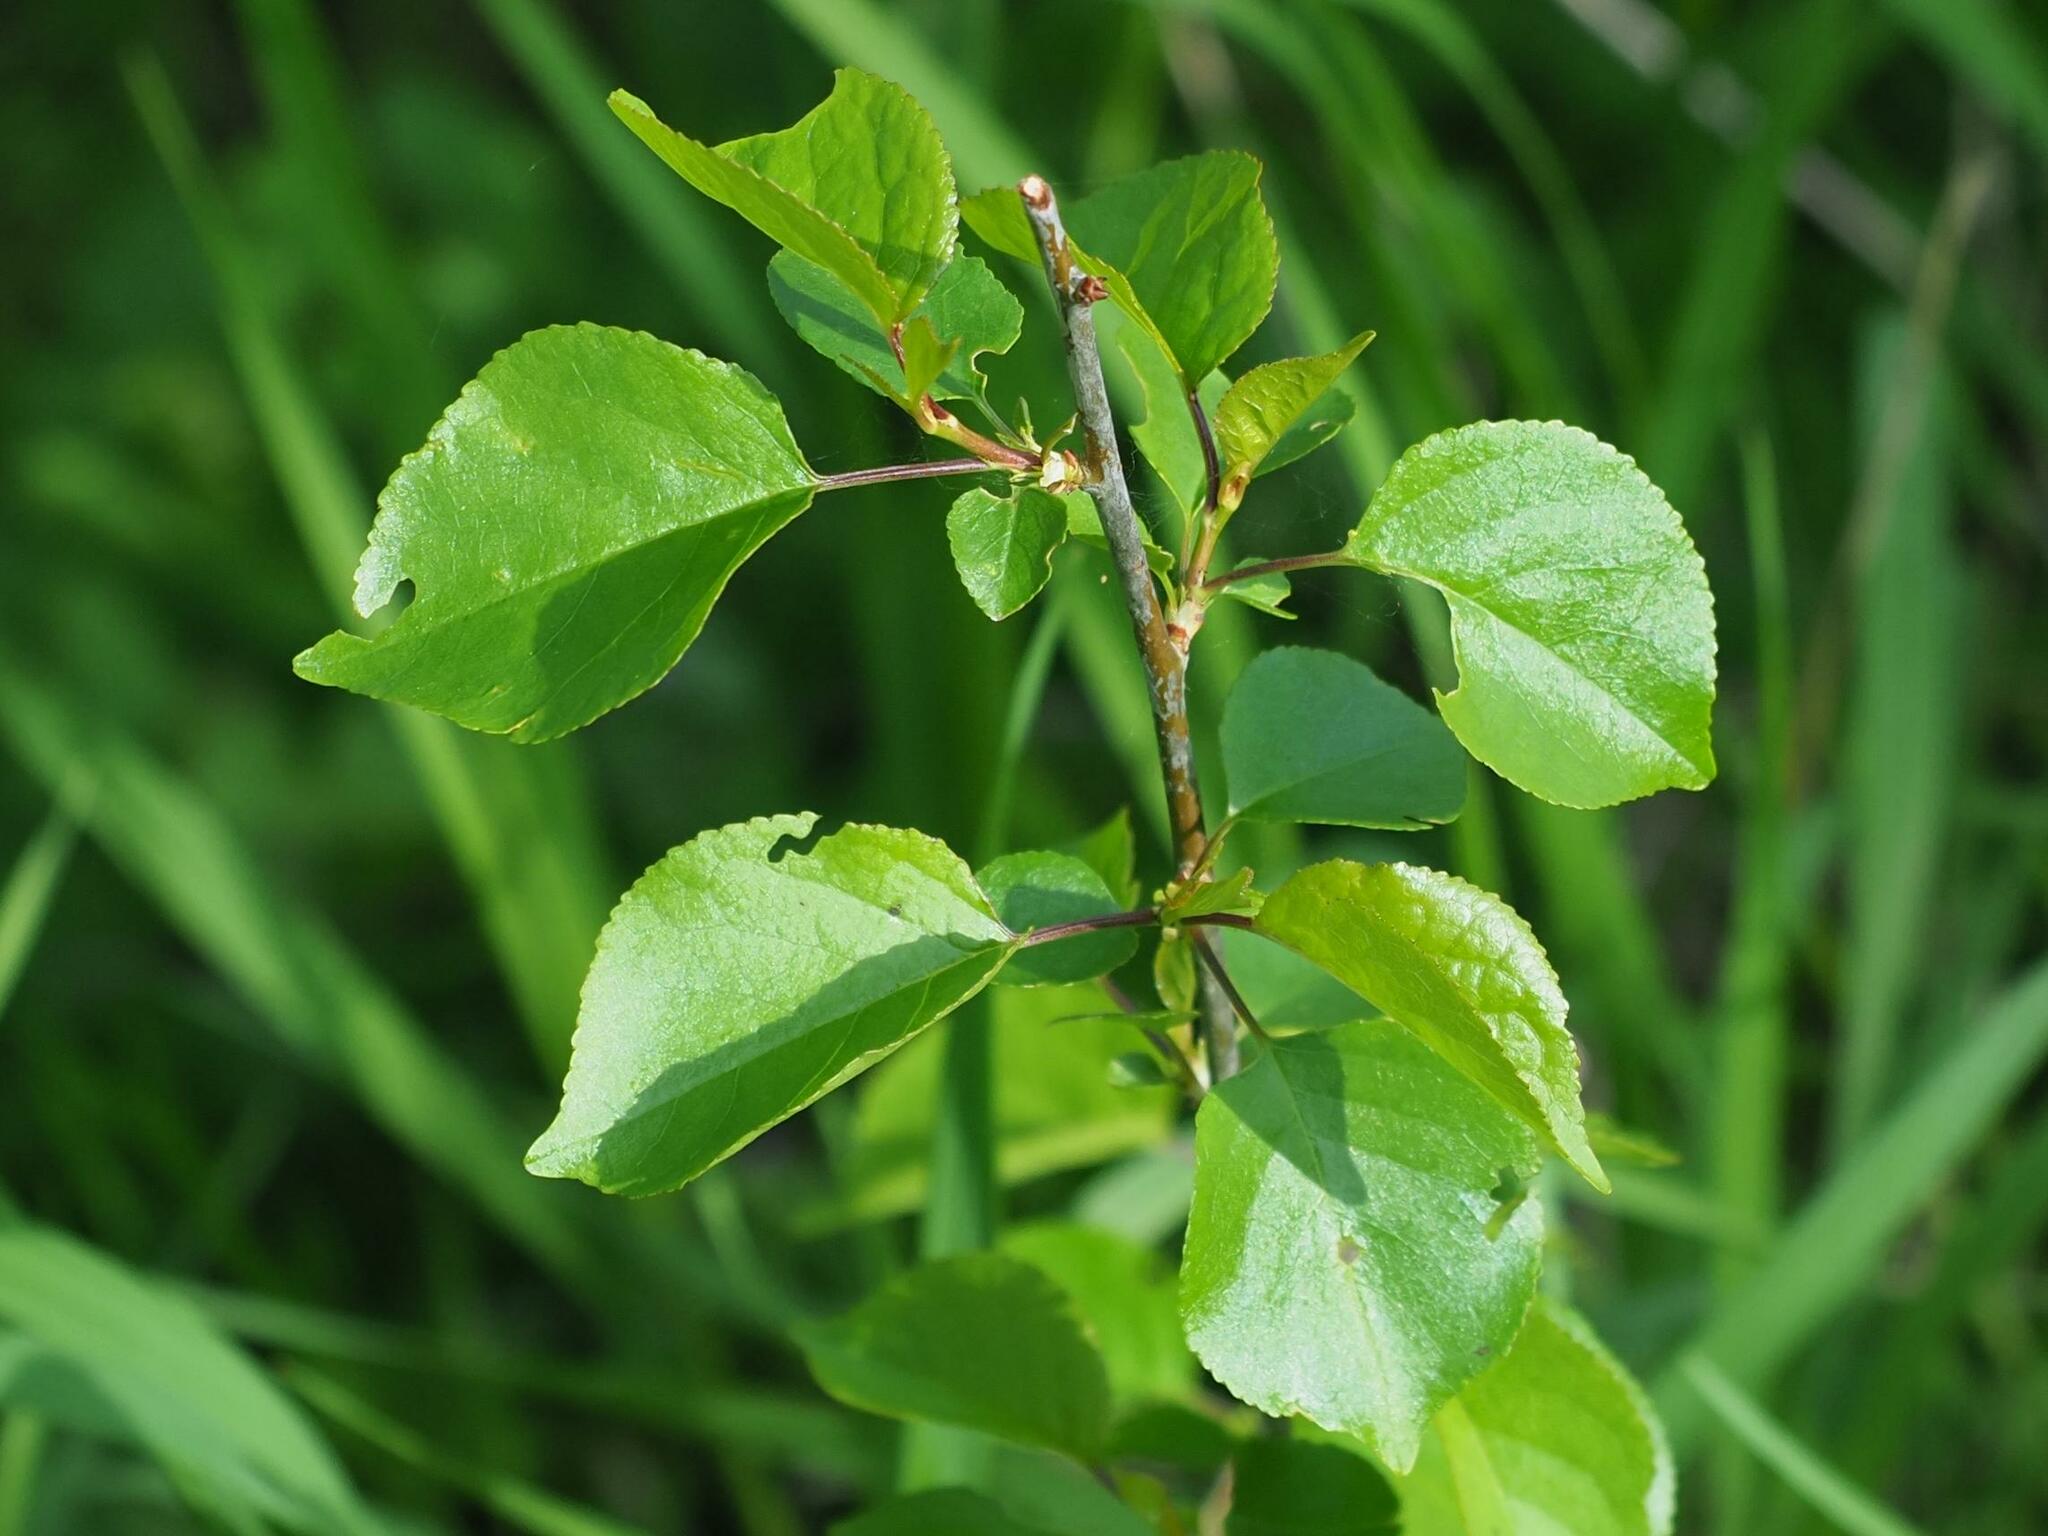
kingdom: Plantae
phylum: Tracheophyta
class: Magnoliopsida
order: Rosales
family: Rosaceae
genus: Prunus
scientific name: Prunus mahaleb
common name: Mahaleb cherry
